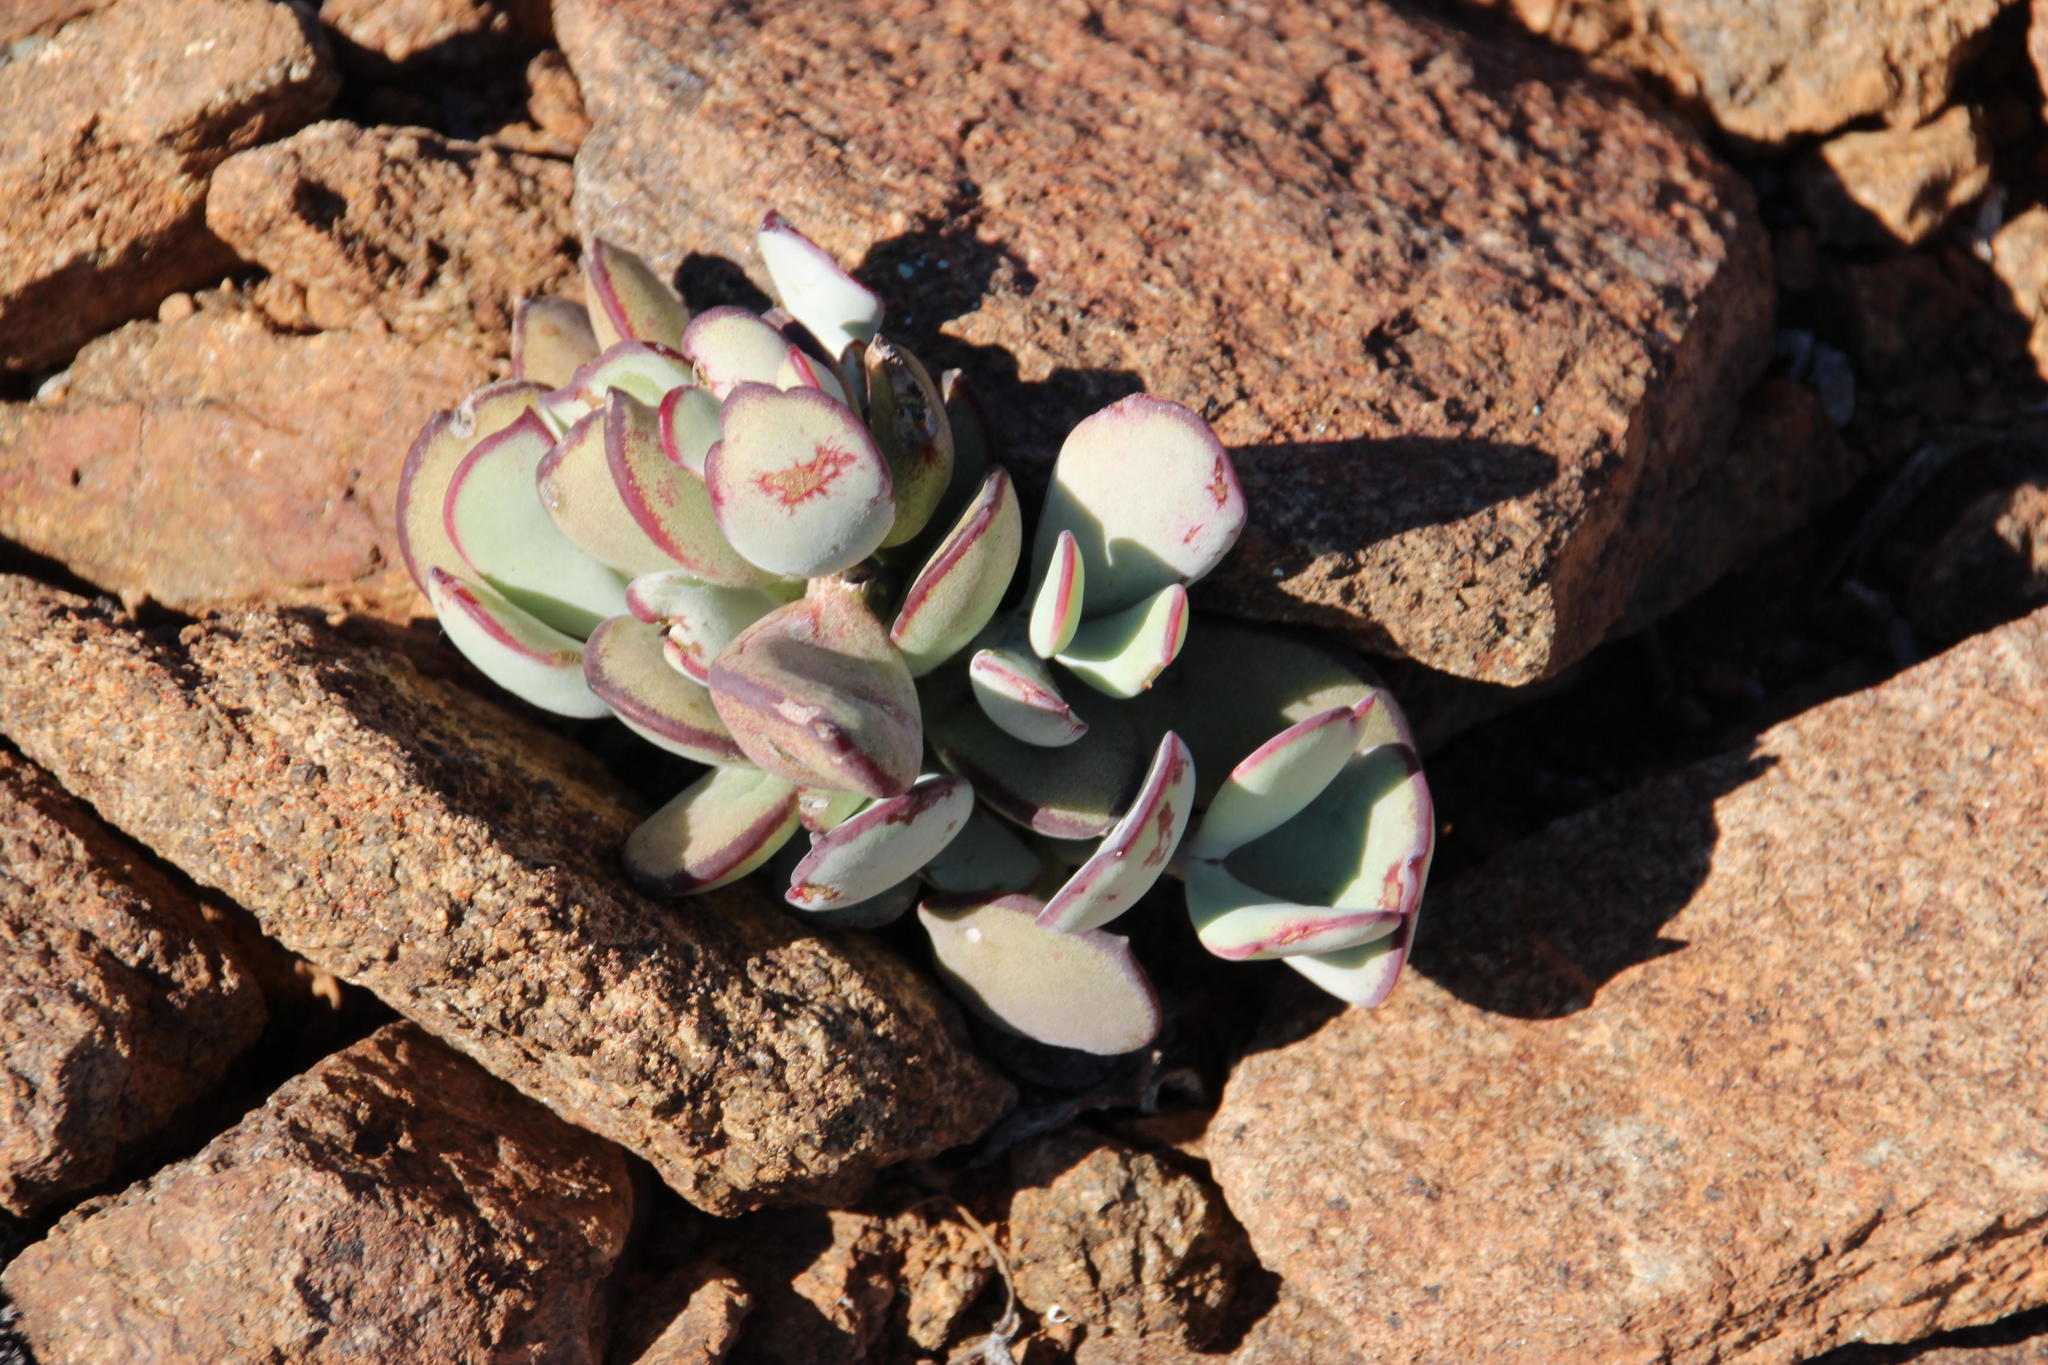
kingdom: Plantae
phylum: Tracheophyta
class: Magnoliopsida
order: Saxifragales
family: Crassulaceae
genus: Cotyledon
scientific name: Cotyledon orbiculata
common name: Pig's ear
